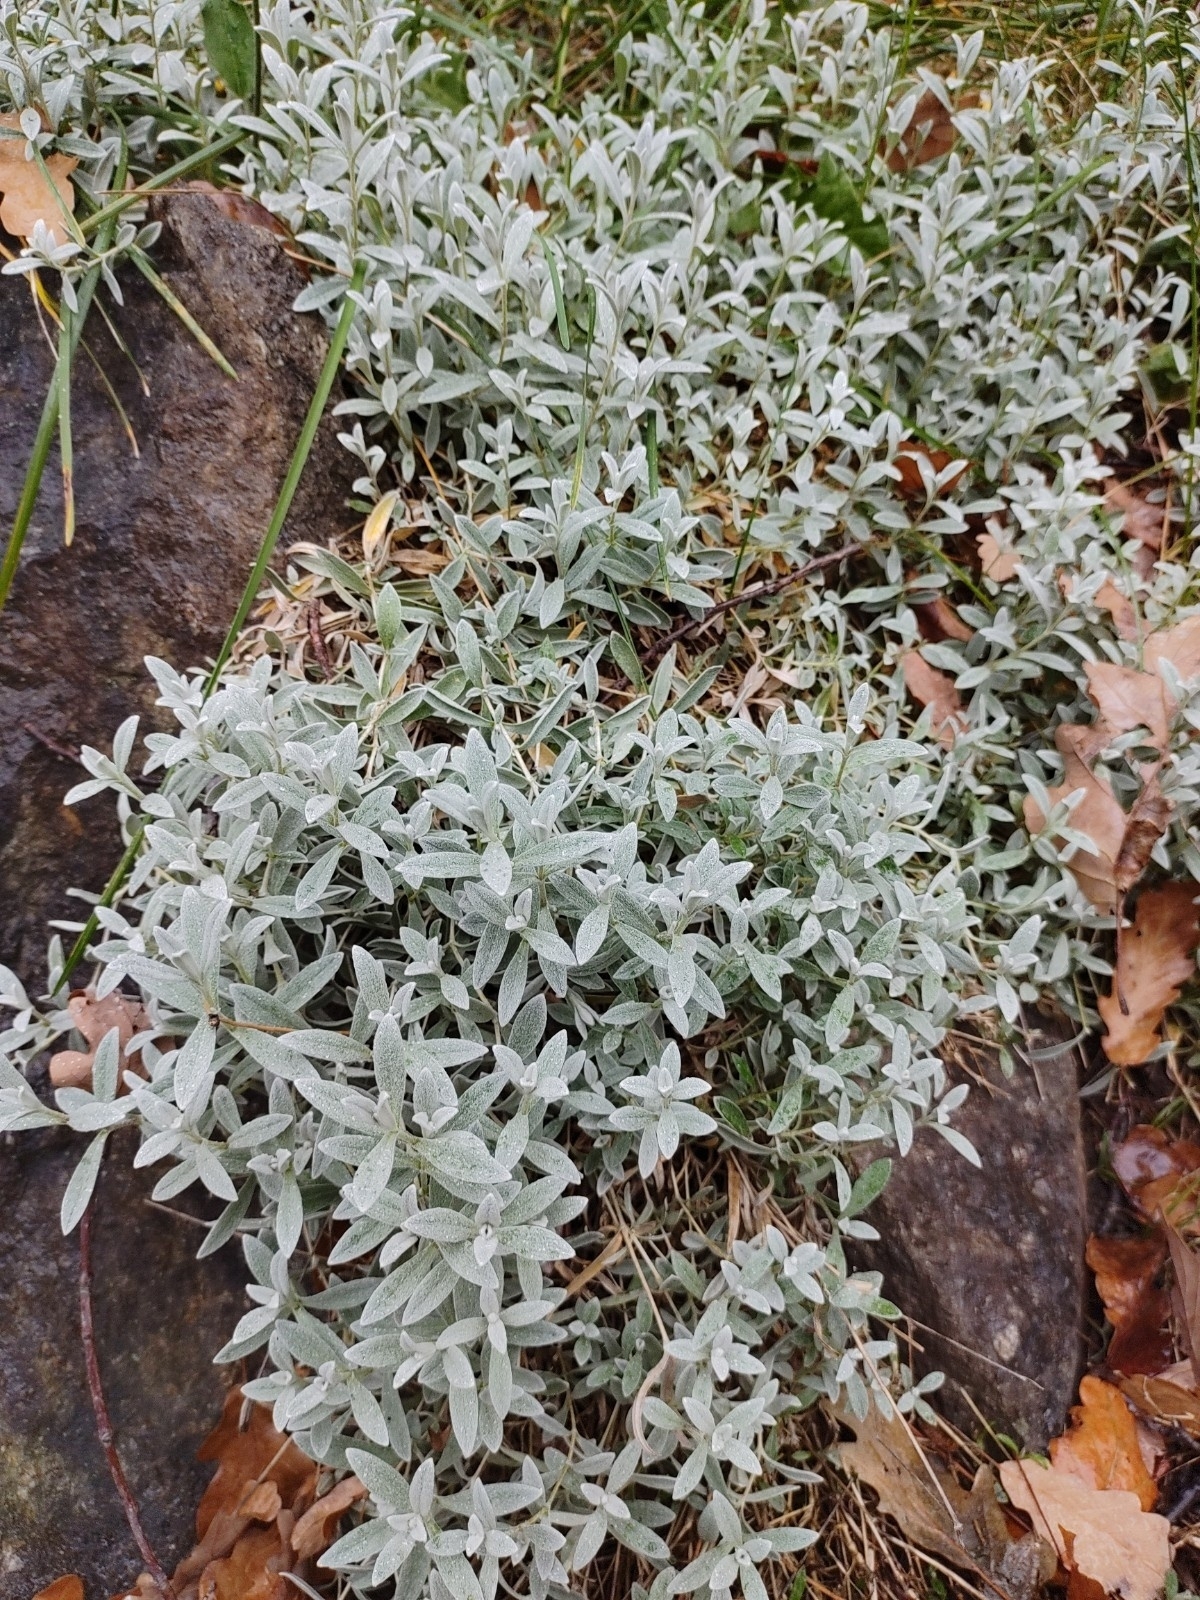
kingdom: Plantae
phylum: Tracheophyta
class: Magnoliopsida
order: Caryophyllales
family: Caryophyllaceae
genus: Cerastium
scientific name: Cerastium tomentosum
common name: Snow-in-summer
